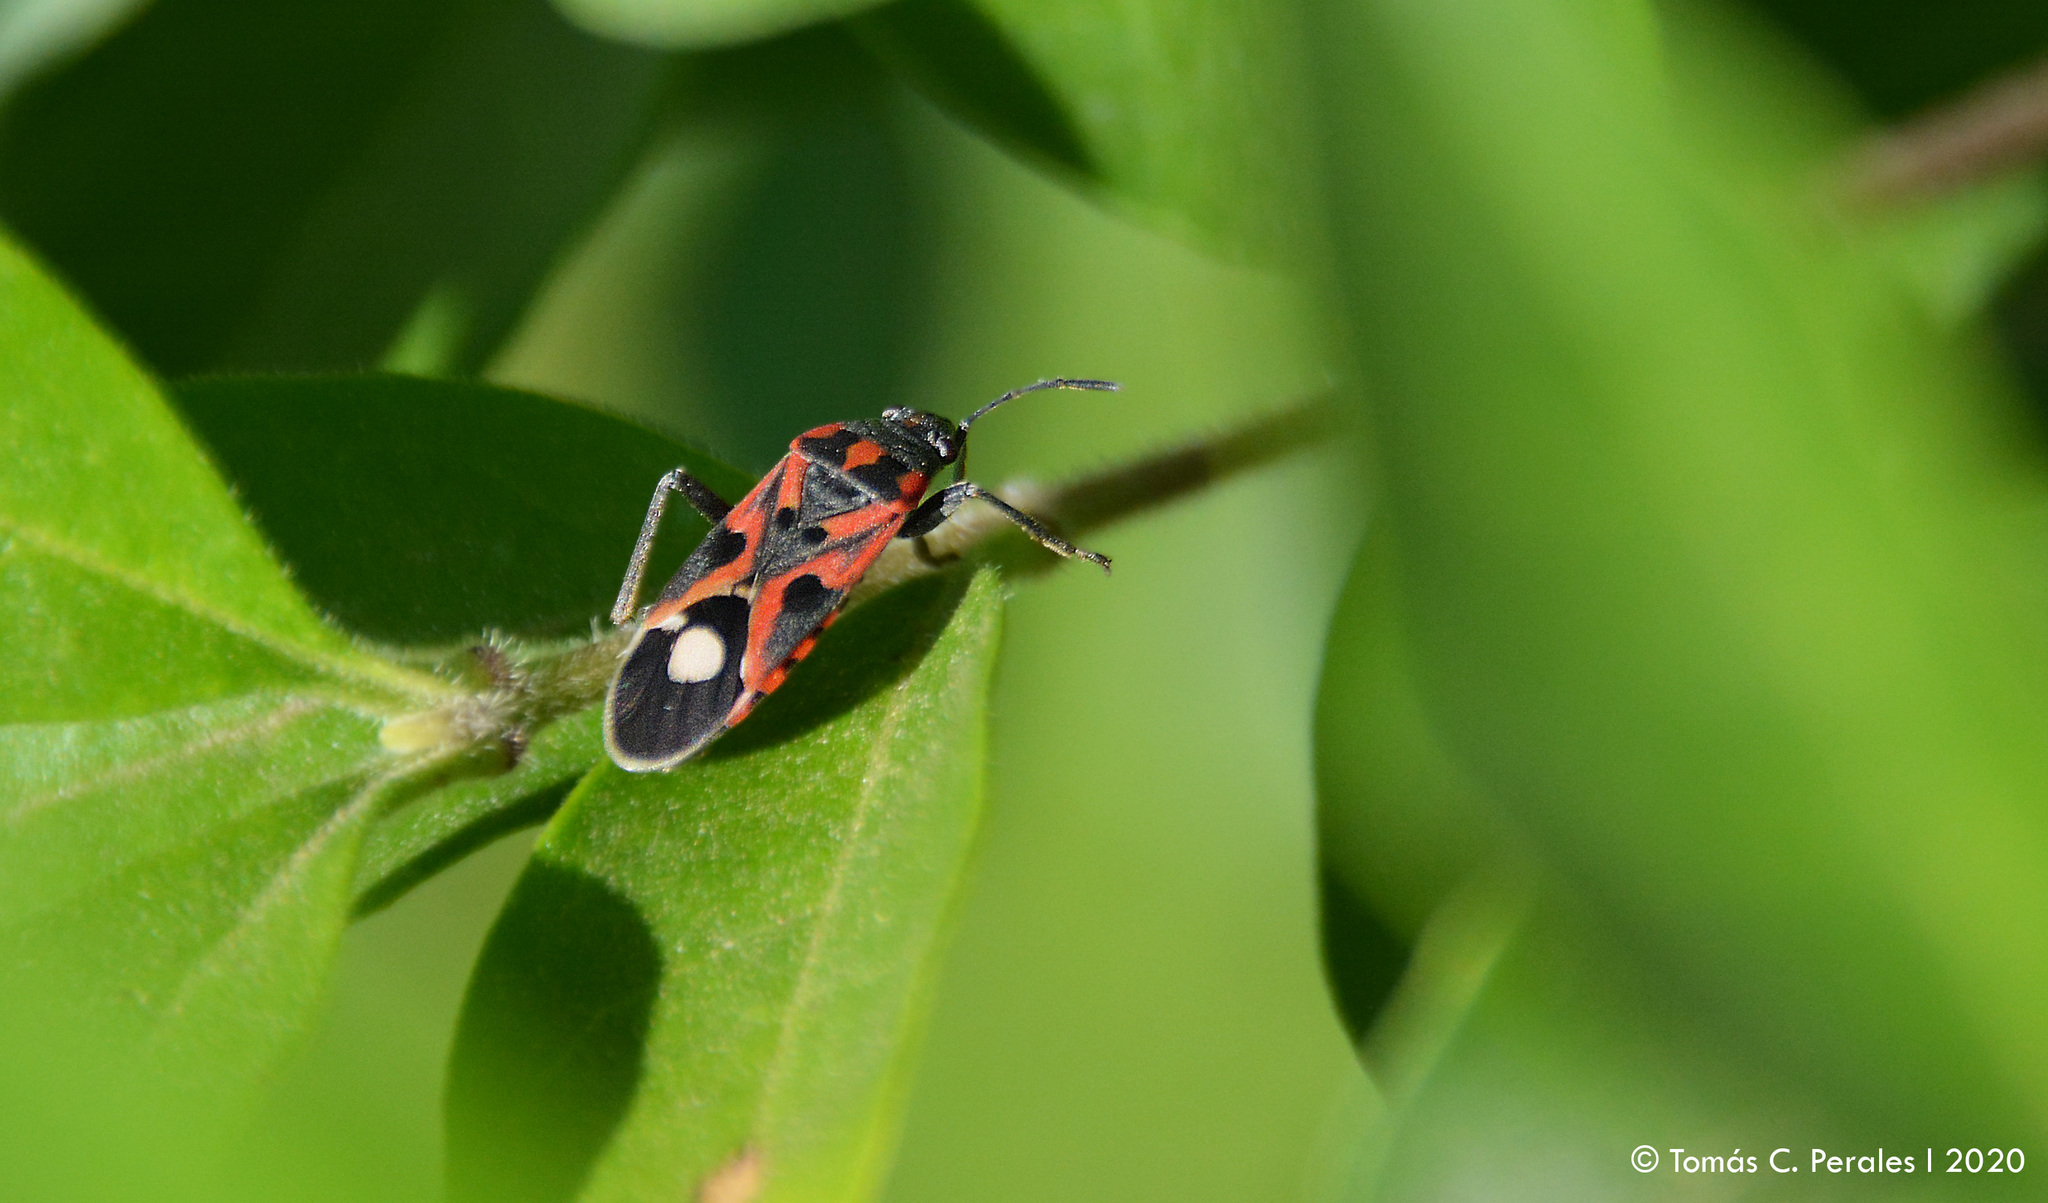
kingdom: Animalia
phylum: Arthropoda
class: Insecta
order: Hemiptera
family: Lygaeidae
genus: Lygaeus
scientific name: Lygaeus alboornatus
